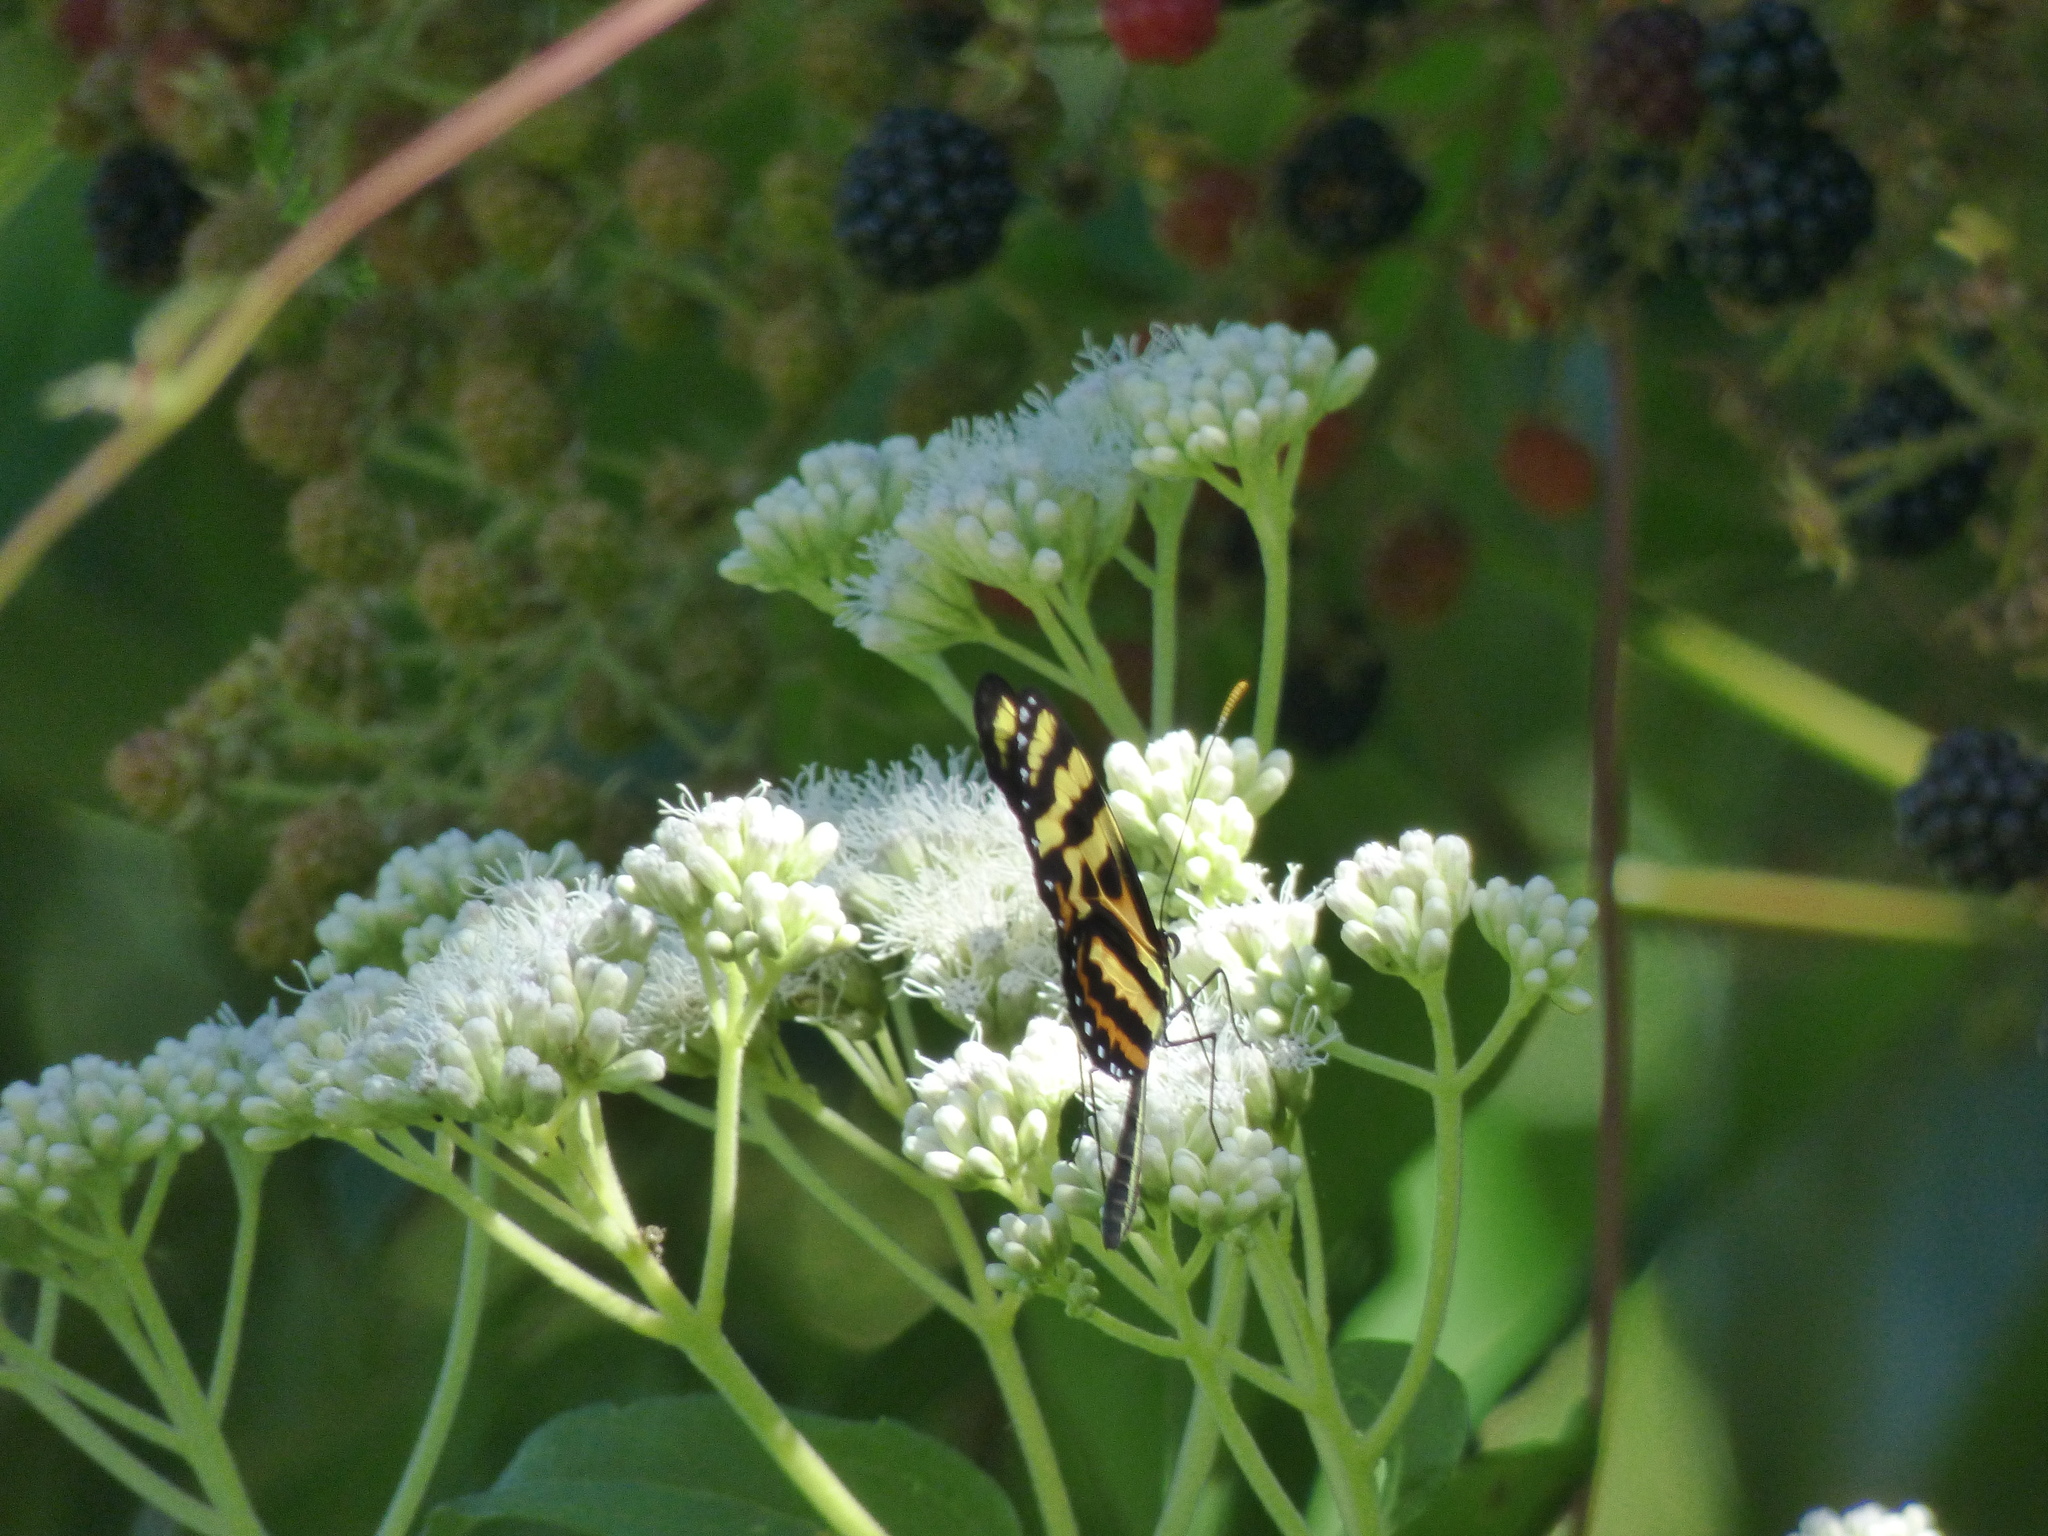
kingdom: Animalia
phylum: Arthropoda
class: Insecta
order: Lepidoptera
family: Nymphalidae
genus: Mechanitis
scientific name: Mechanitis polymnia
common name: Disturbed tigerwing
